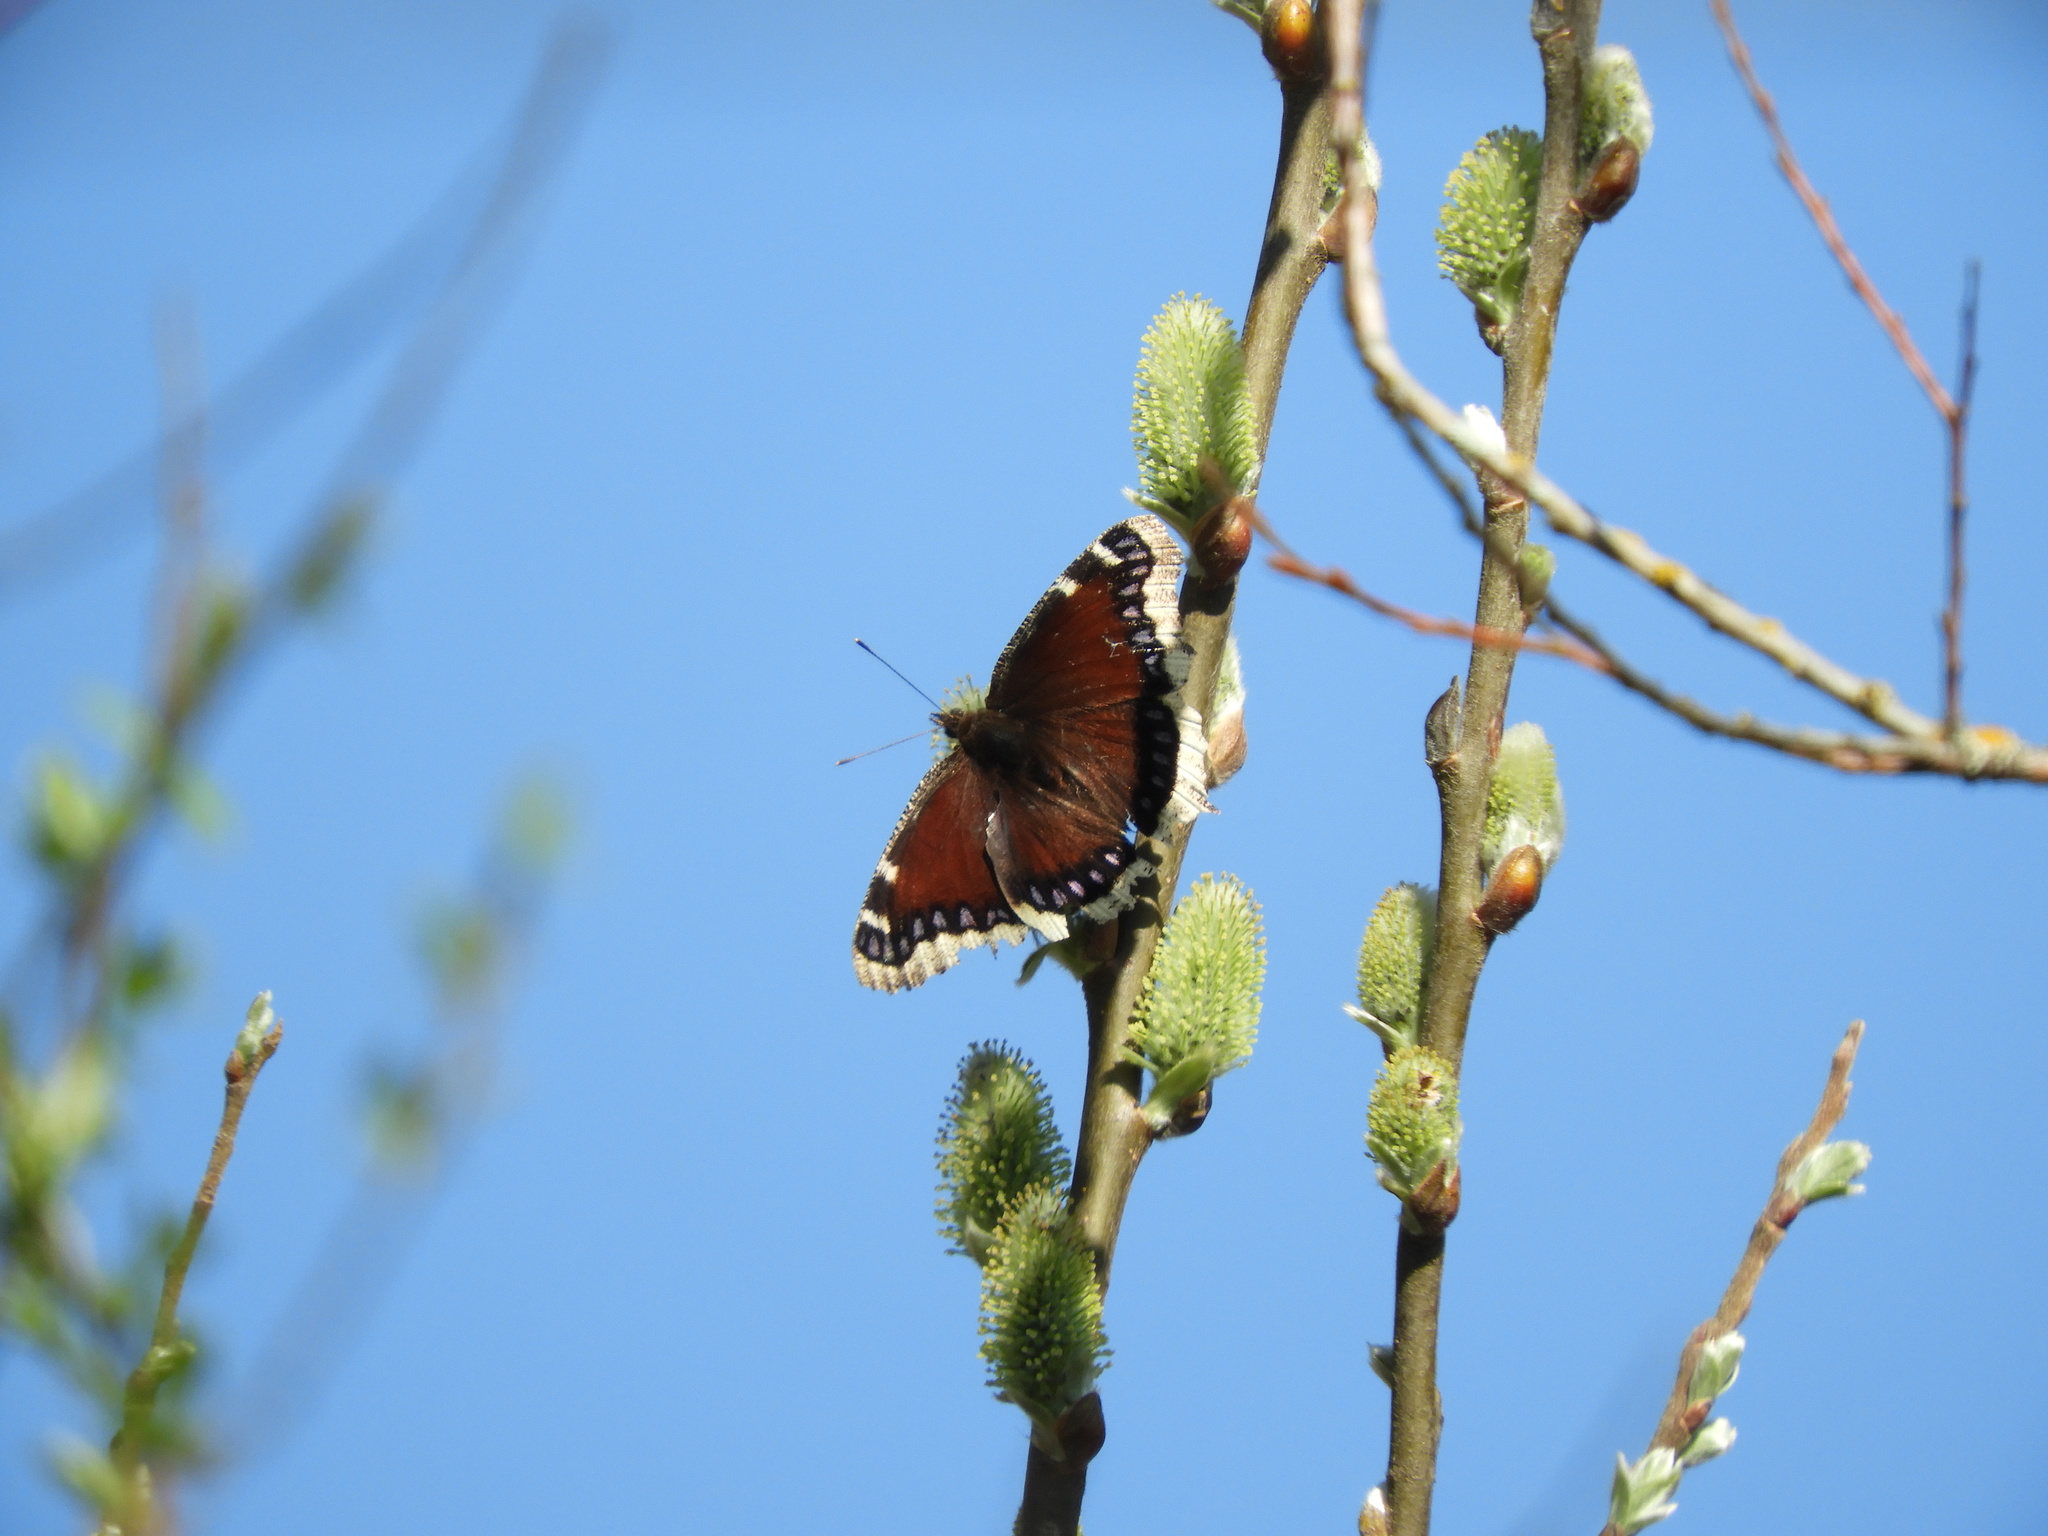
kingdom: Animalia
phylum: Arthropoda
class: Insecta
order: Lepidoptera
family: Nymphalidae
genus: Nymphalis
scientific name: Nymphalis antiopa
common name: Camberwell beauty
